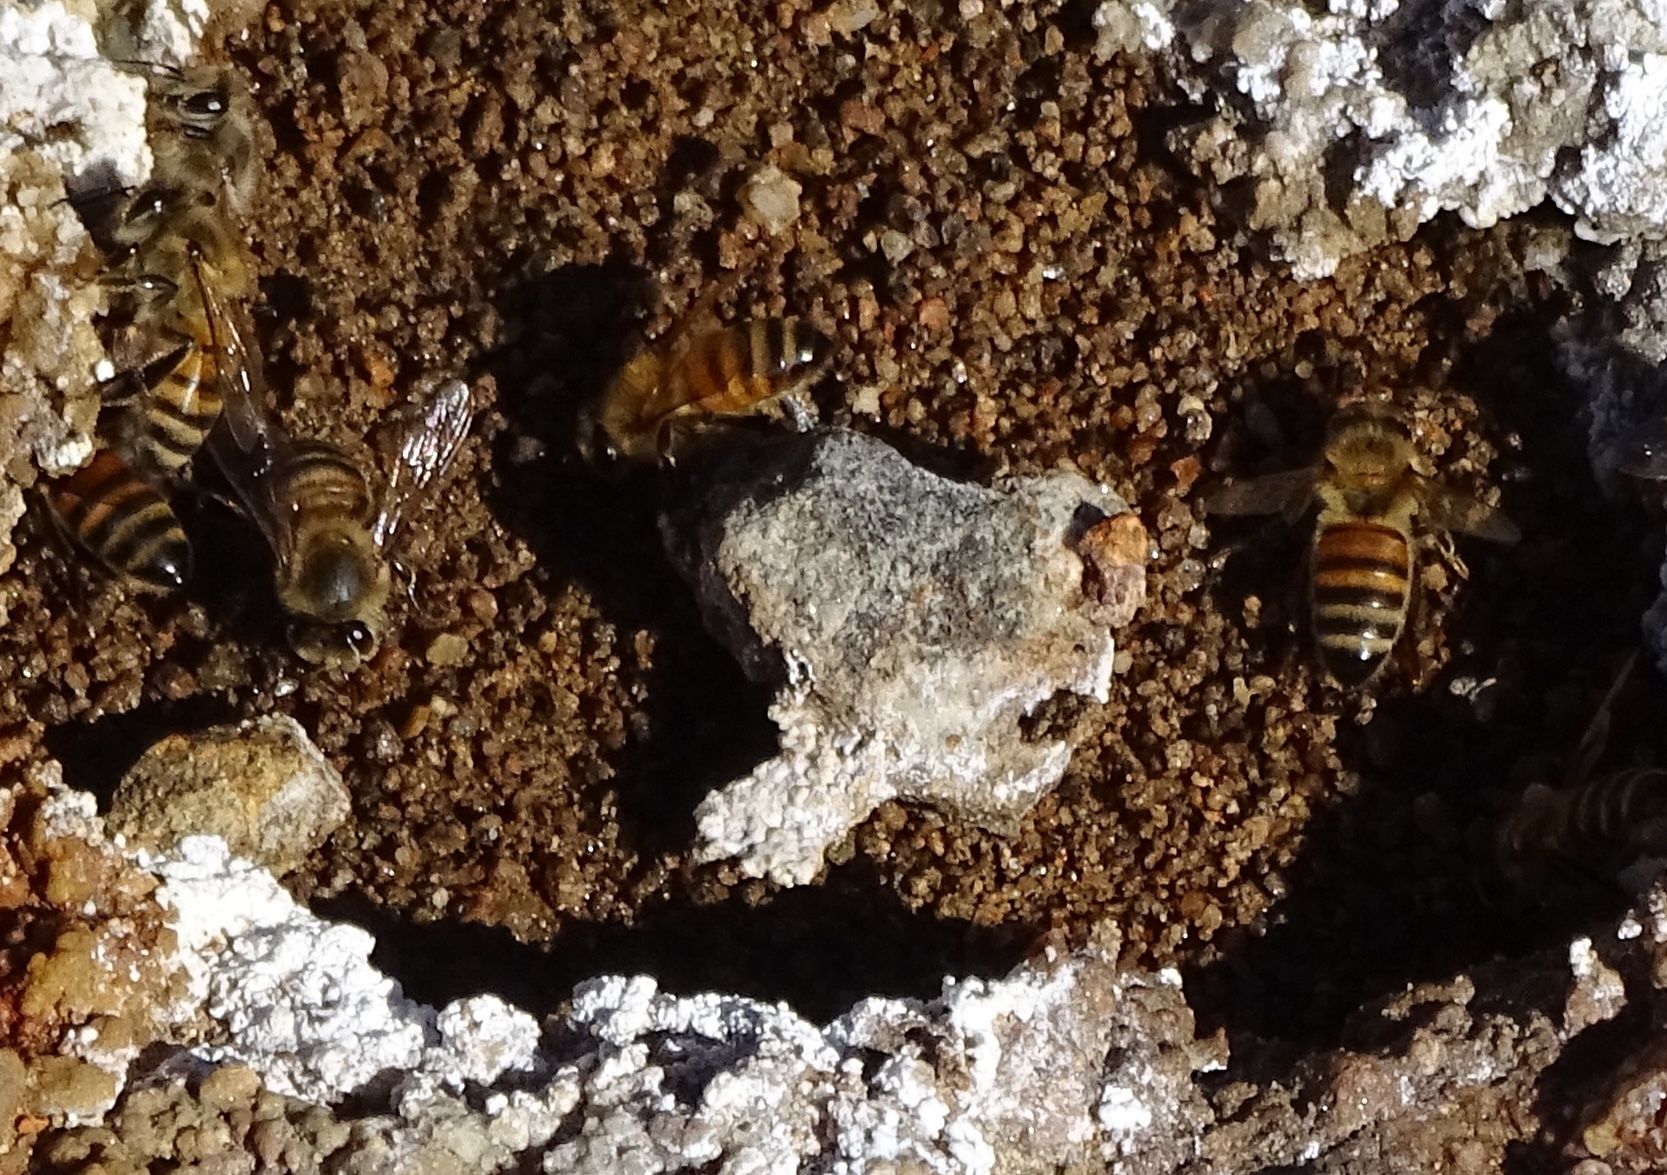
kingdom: Animalia
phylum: Arthropoda
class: Insecta
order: Hymenoptera
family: Apidae
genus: Apis
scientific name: Apis mellifera
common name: Honey bee
